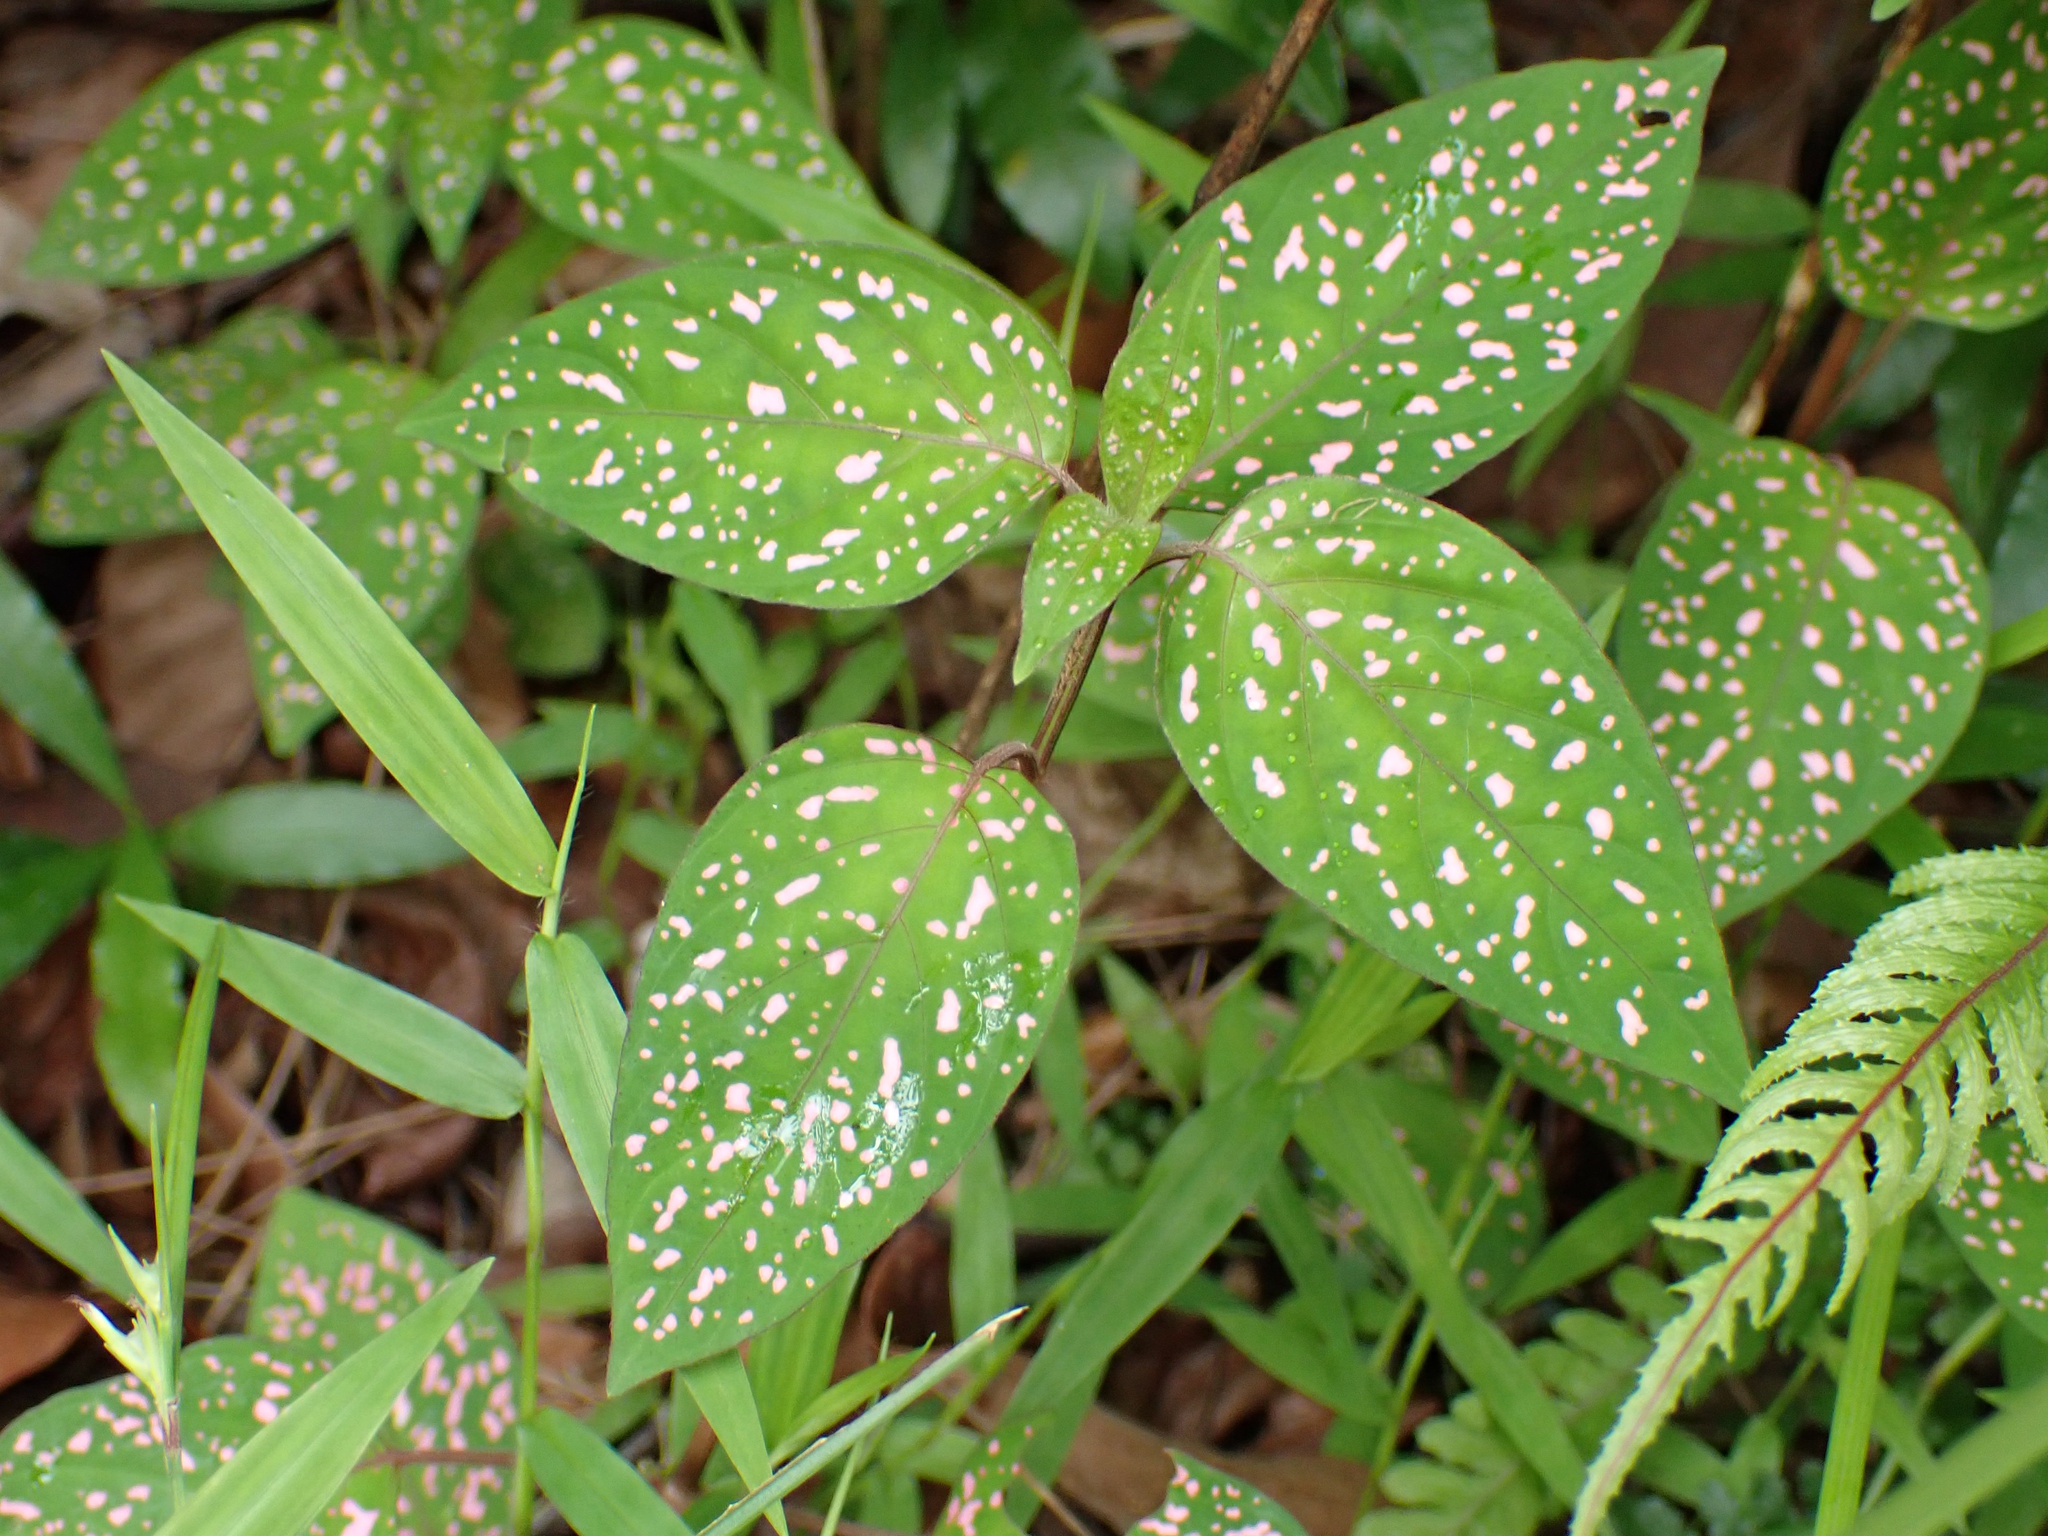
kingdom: Plantae
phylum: Tracheophyta
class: Magnoliopsida
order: Lamiales
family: Acanthaceae
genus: Hypoestes
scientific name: Hypoestes phyllostachya
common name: Polkadot-plant
